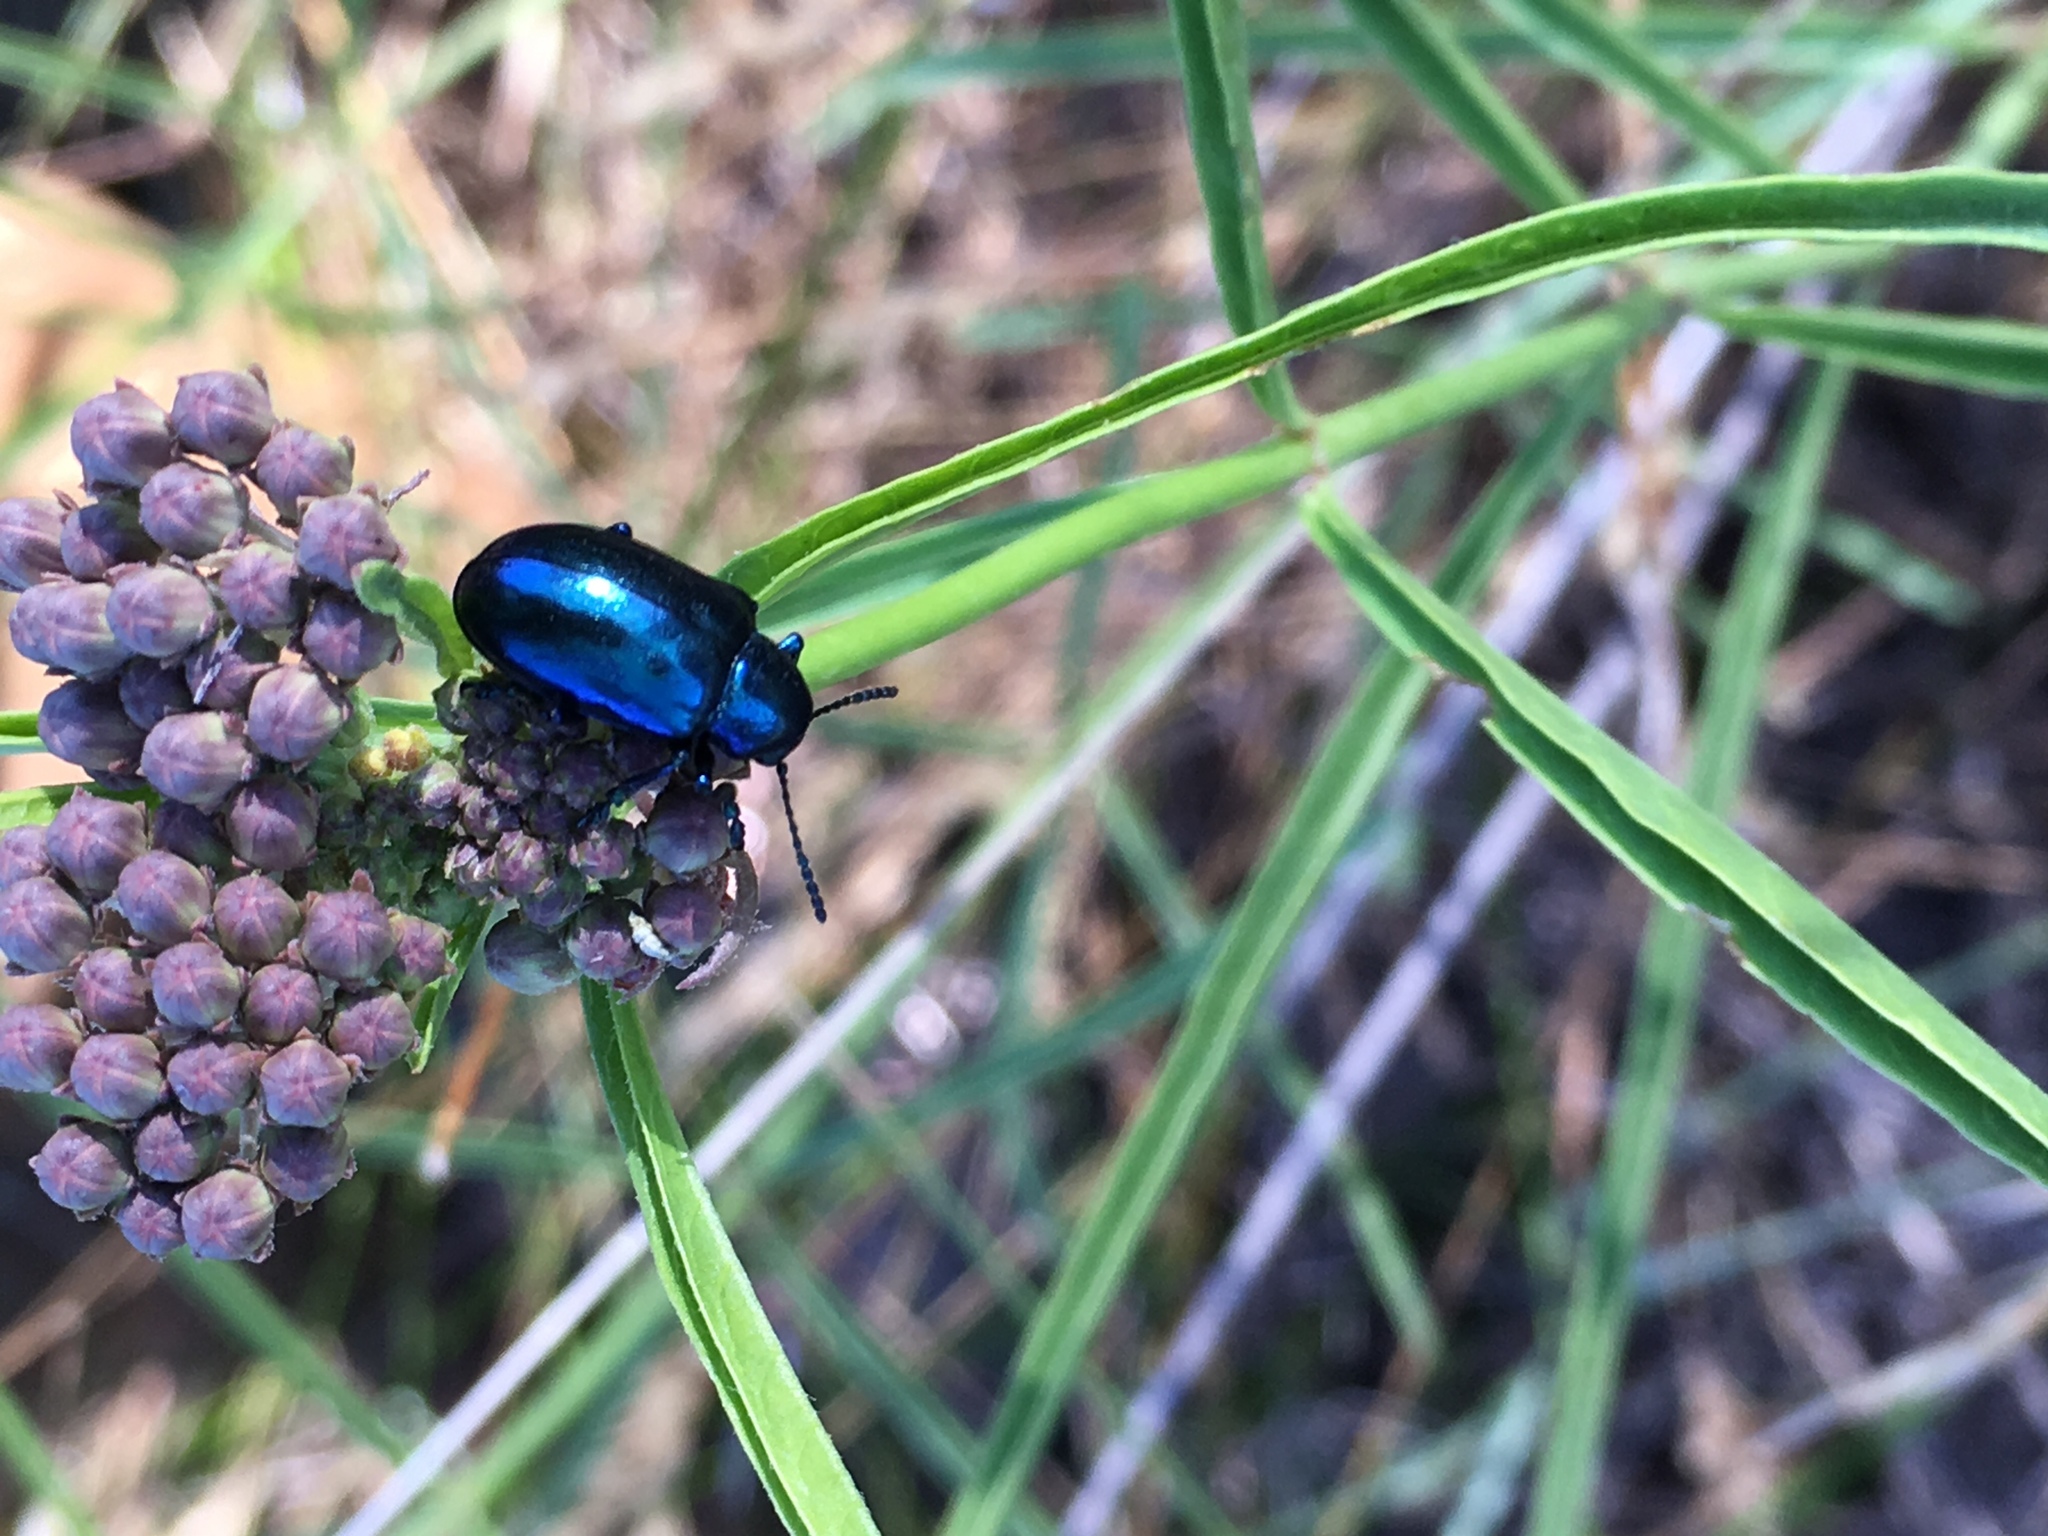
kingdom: Plantae
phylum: Tracheophyta
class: Magnoliopsida
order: Gentianales
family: Apocynaceae
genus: Asclepias
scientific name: Asclepias fascicularis
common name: Mexican milkweed
